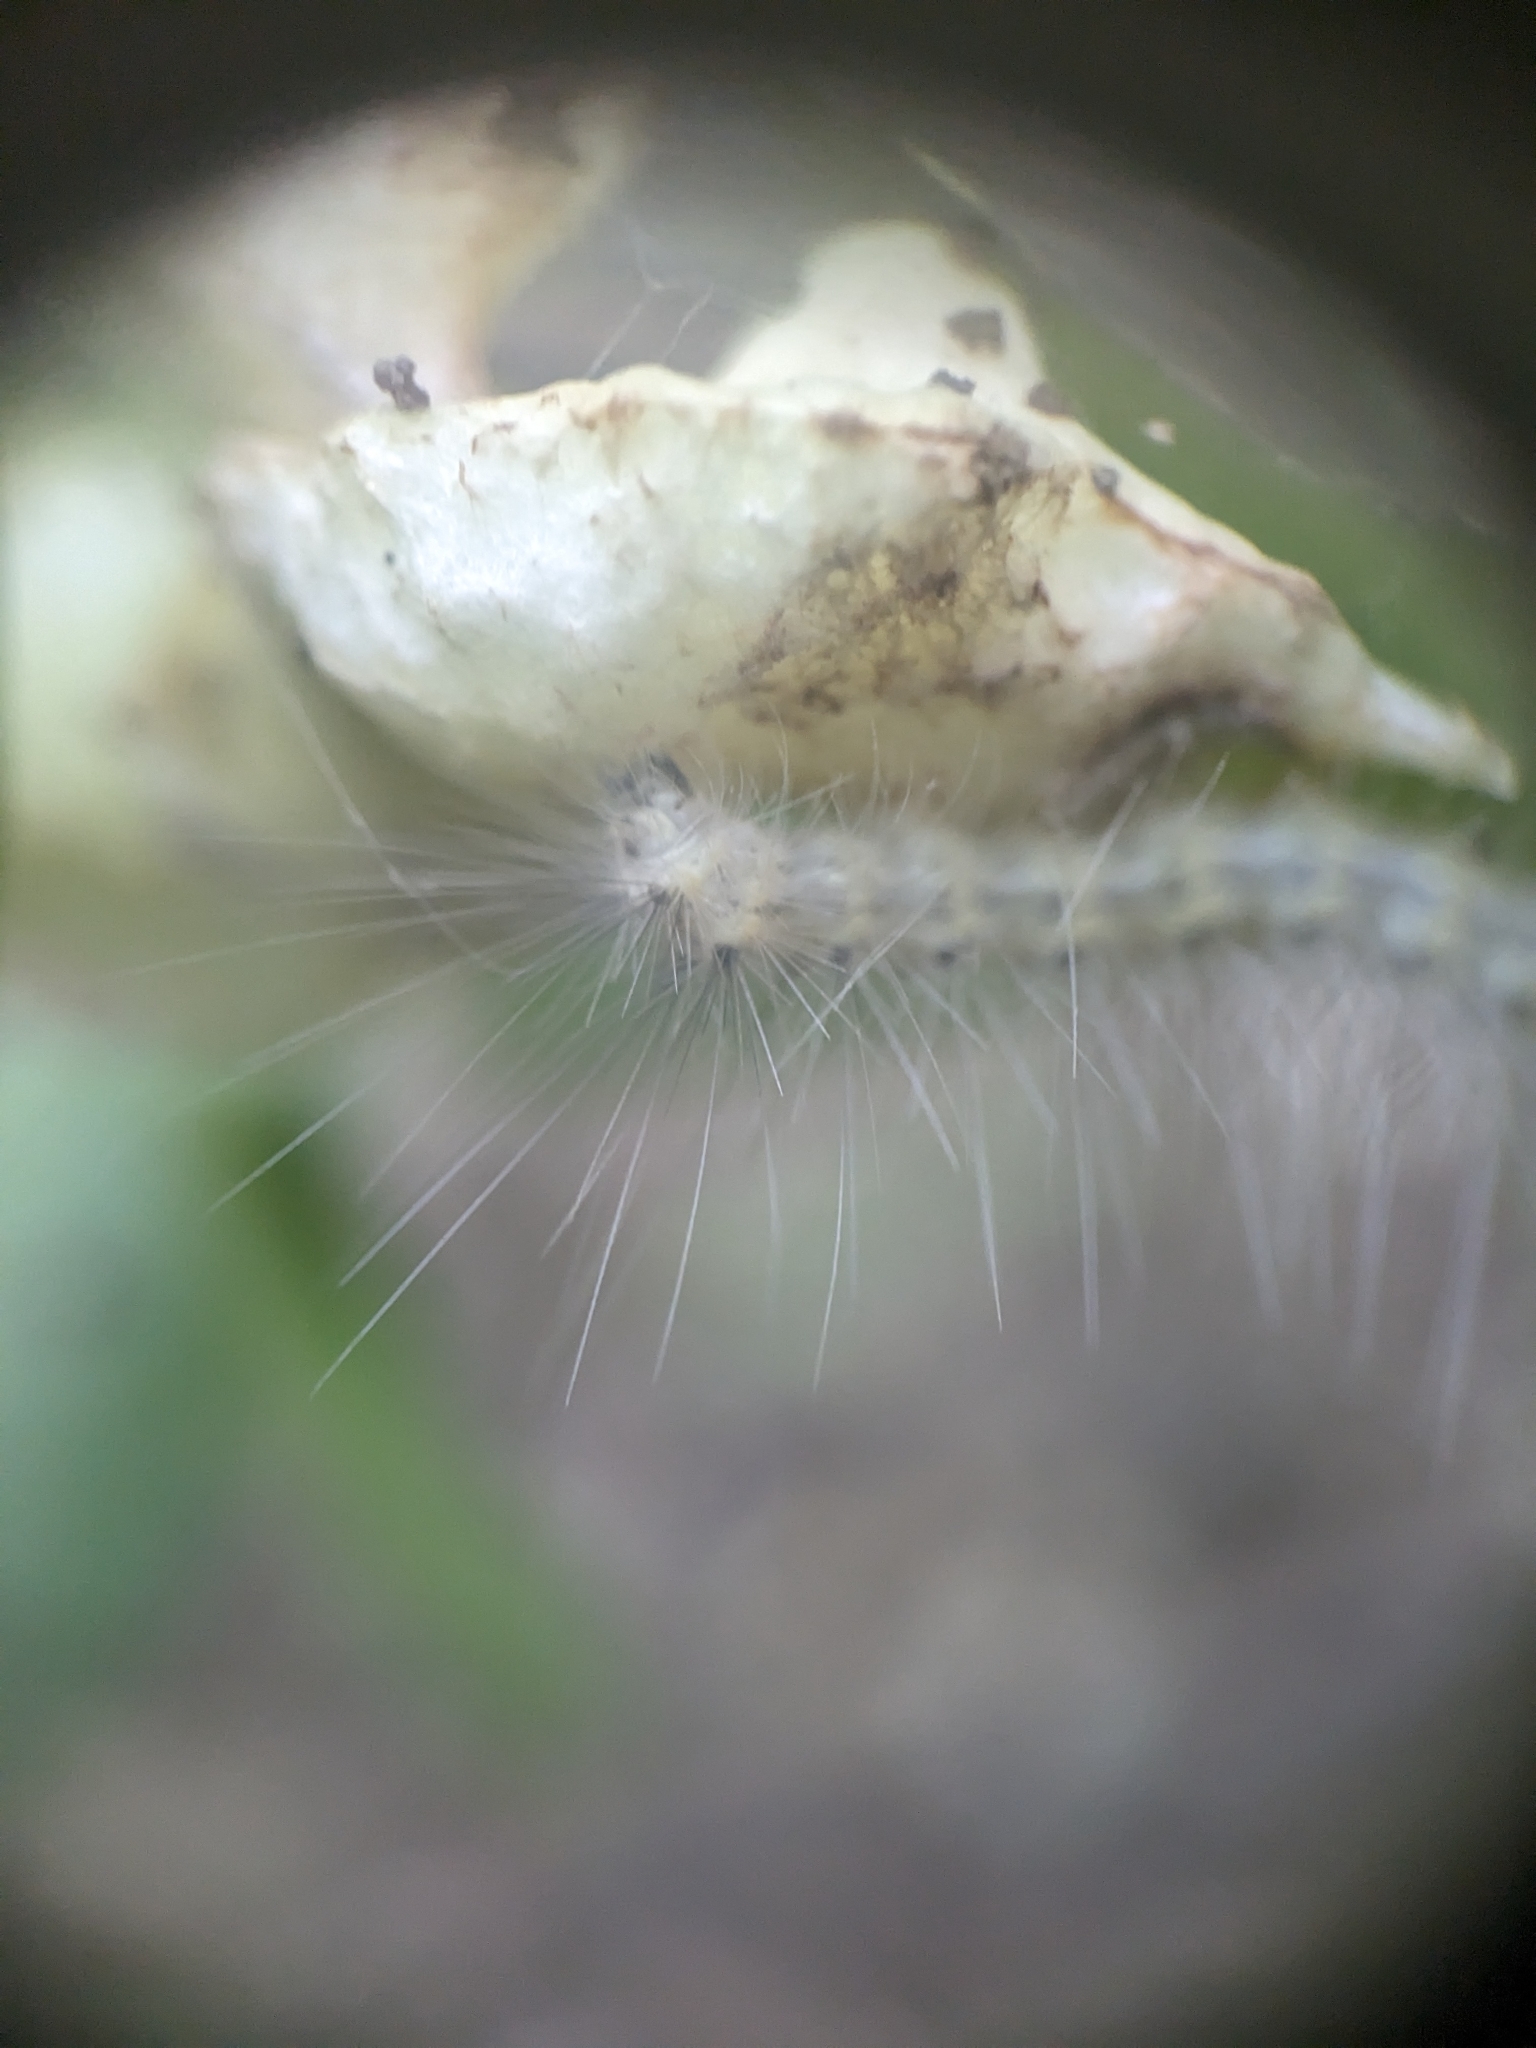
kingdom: Animalia
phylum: Arthropoda
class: Insecta
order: Lepidoptera
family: Erebidae
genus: Hyphantria
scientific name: Hyphantria cunea
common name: American white moth
